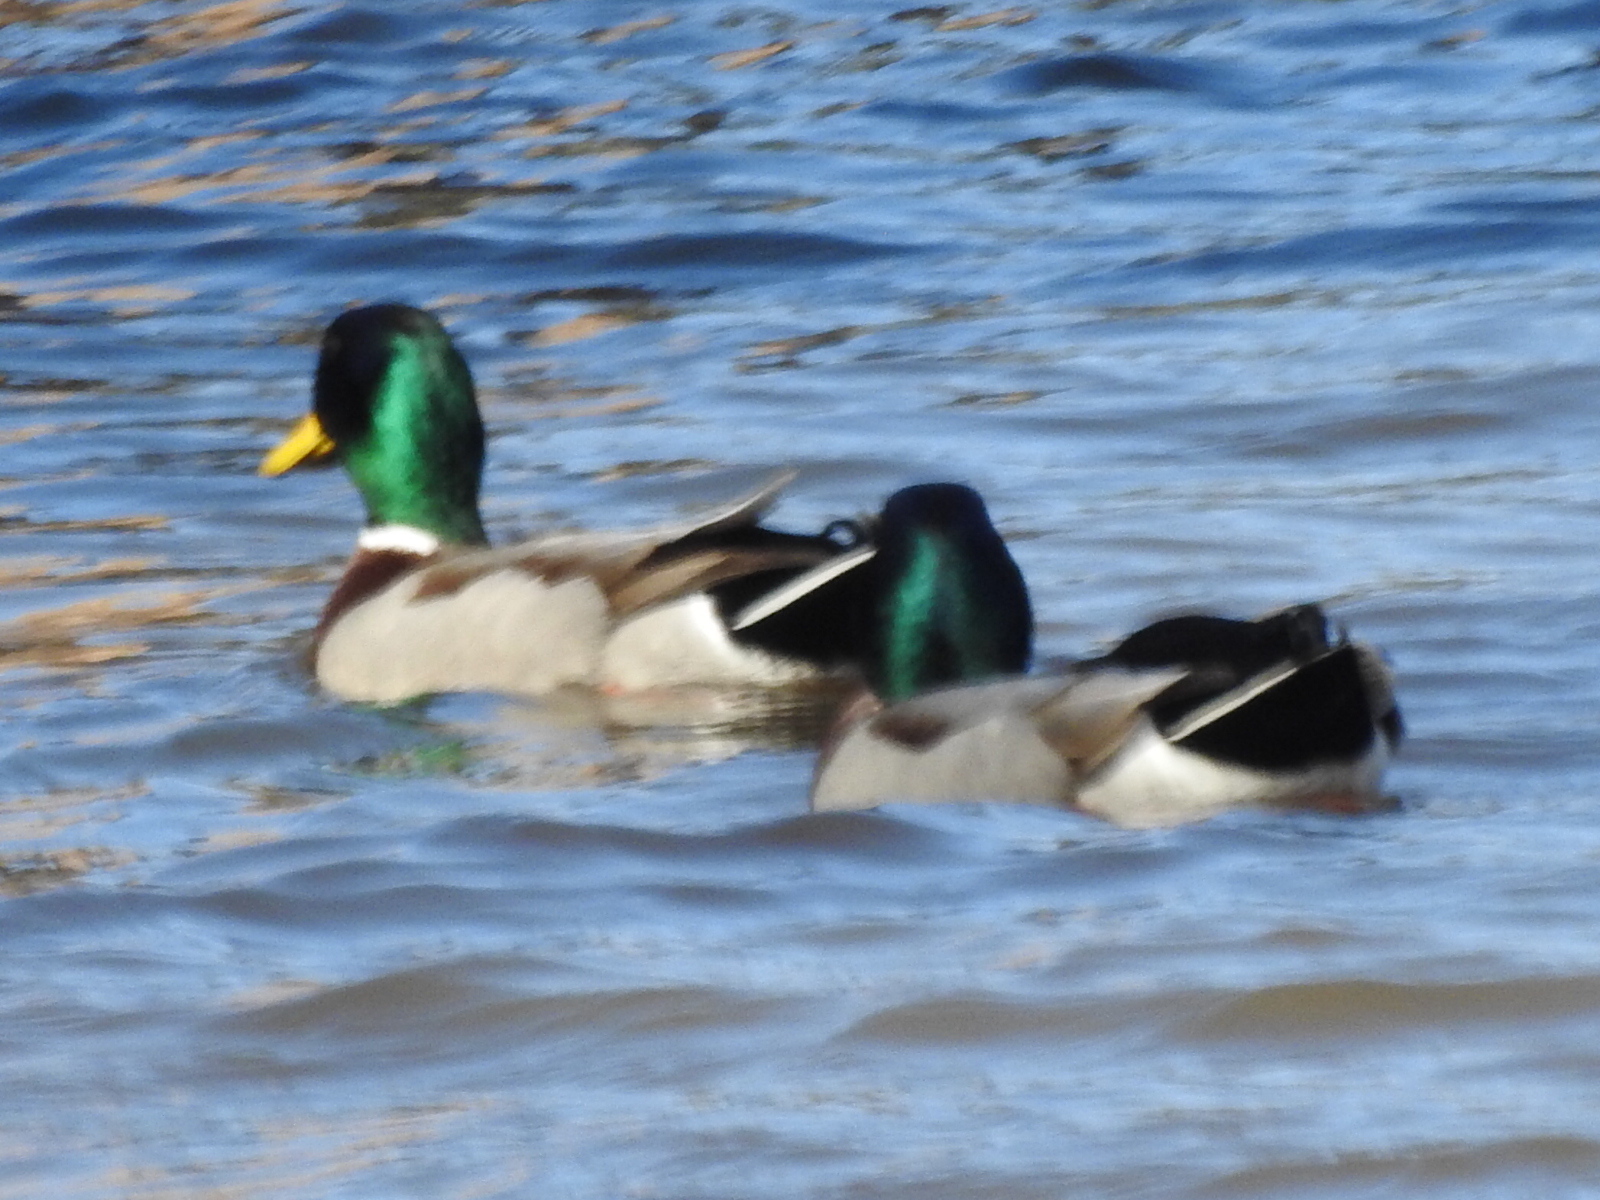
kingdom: Animalia
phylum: Chordata
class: Aves
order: Anseriformes
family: Anatidae
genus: Anas
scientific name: Anas platyrhynchos
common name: Mallard
